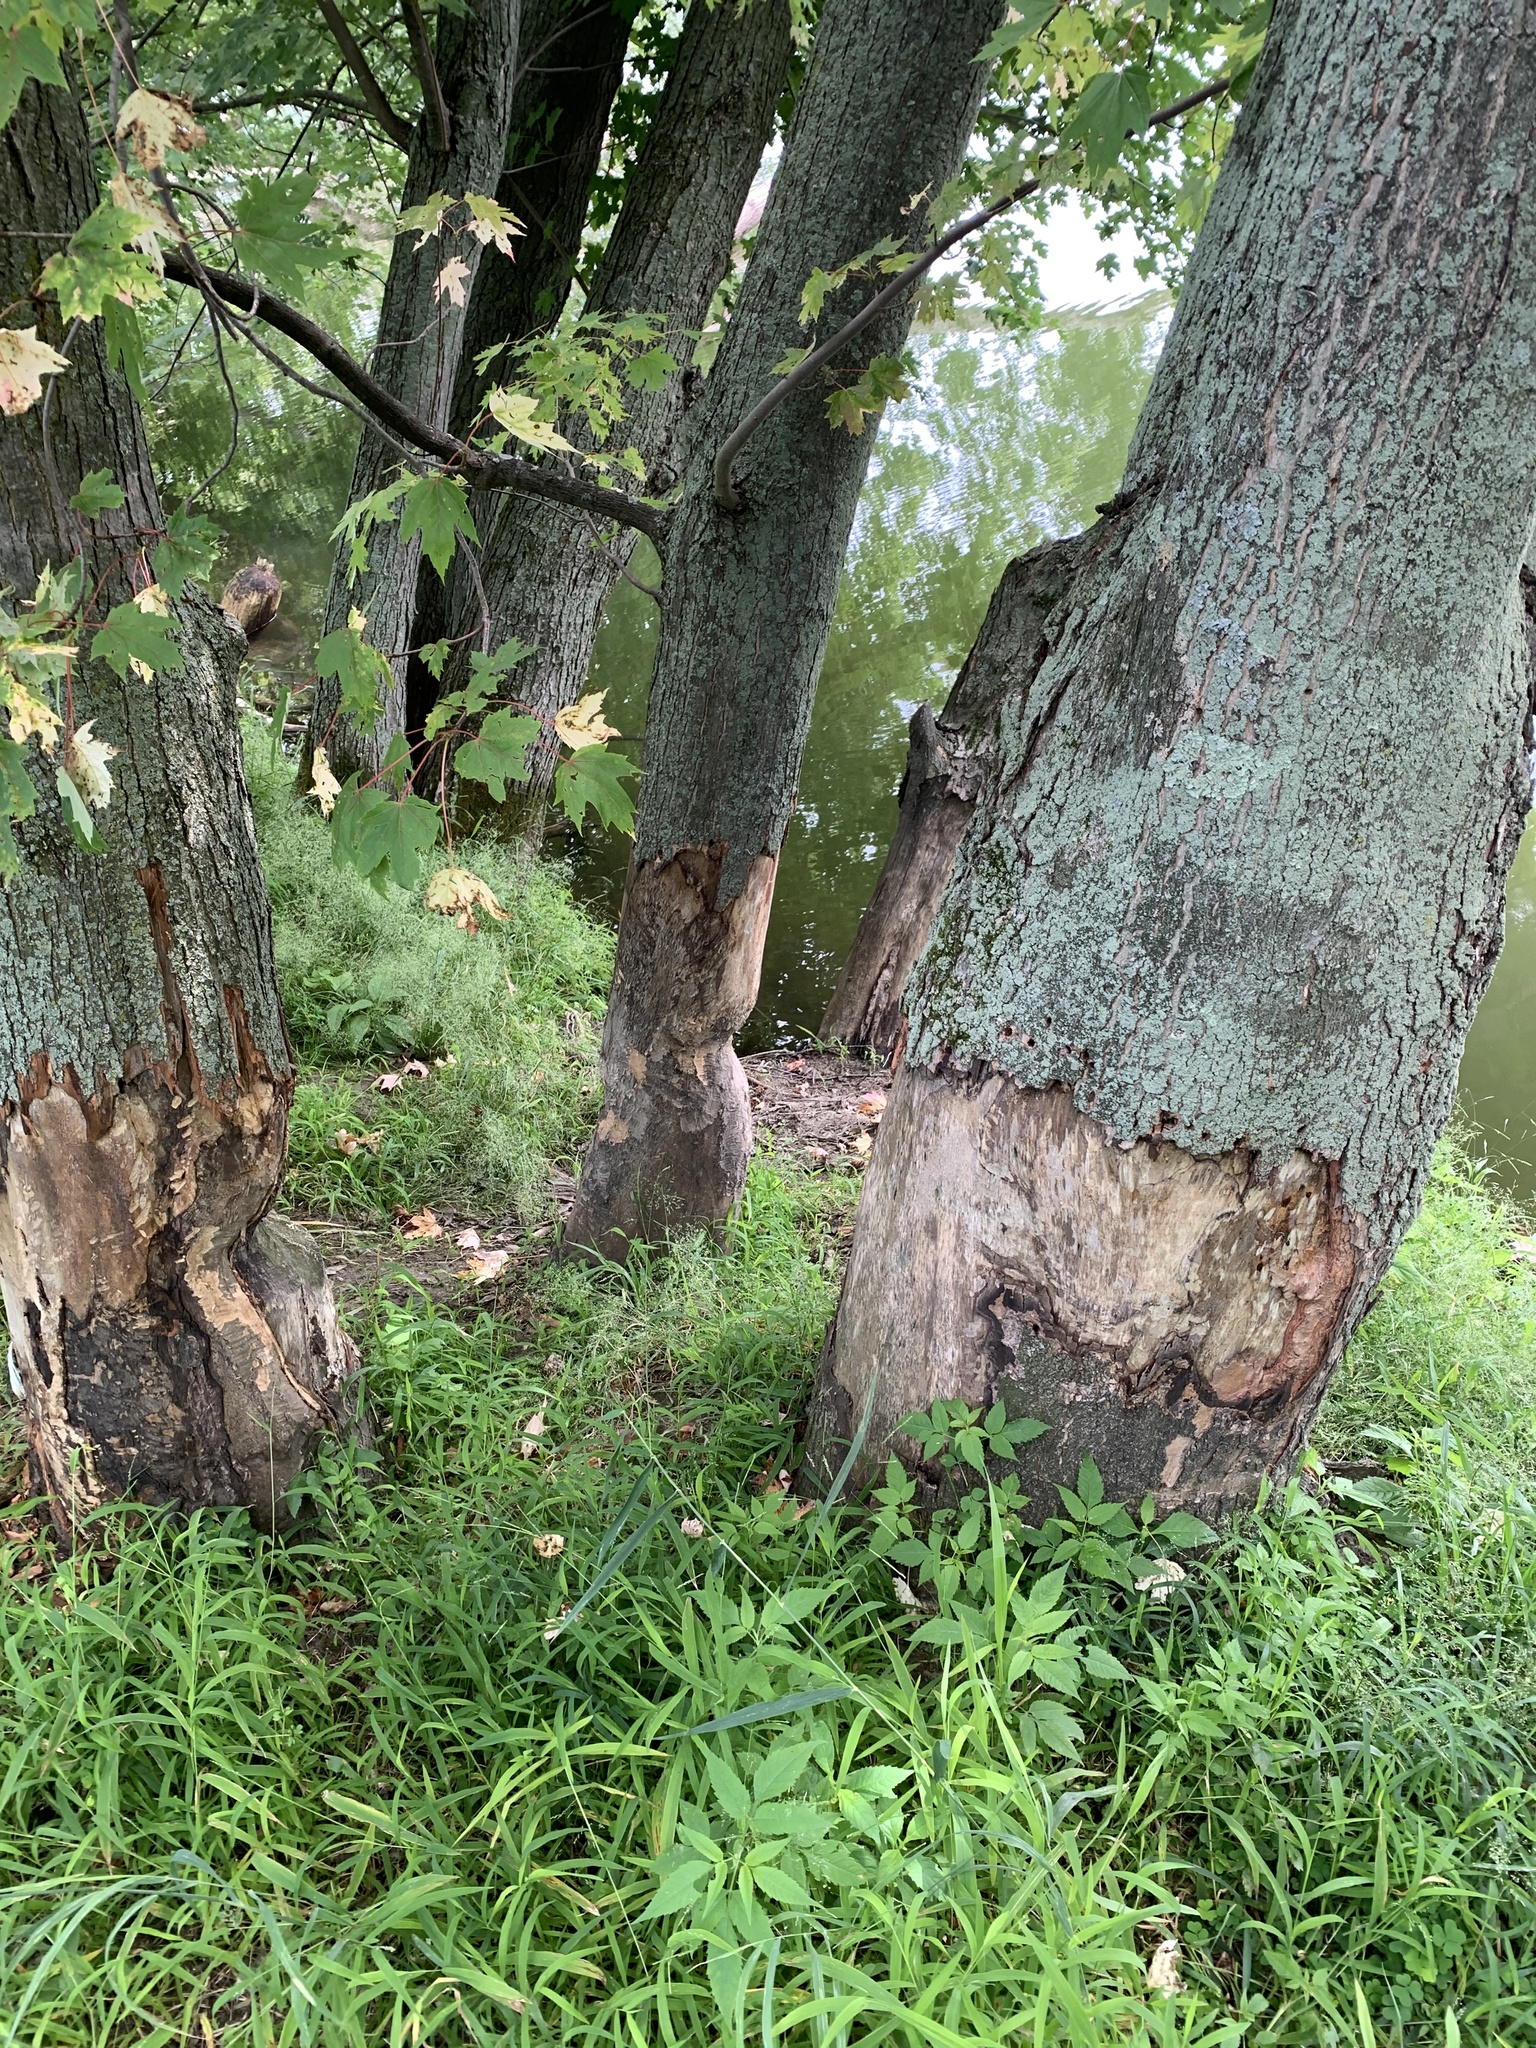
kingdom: Animalia
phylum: Chordata
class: Mammalia
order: Rodentia
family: Castoridae
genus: Castor
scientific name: Castor canadensis
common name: American beaver
